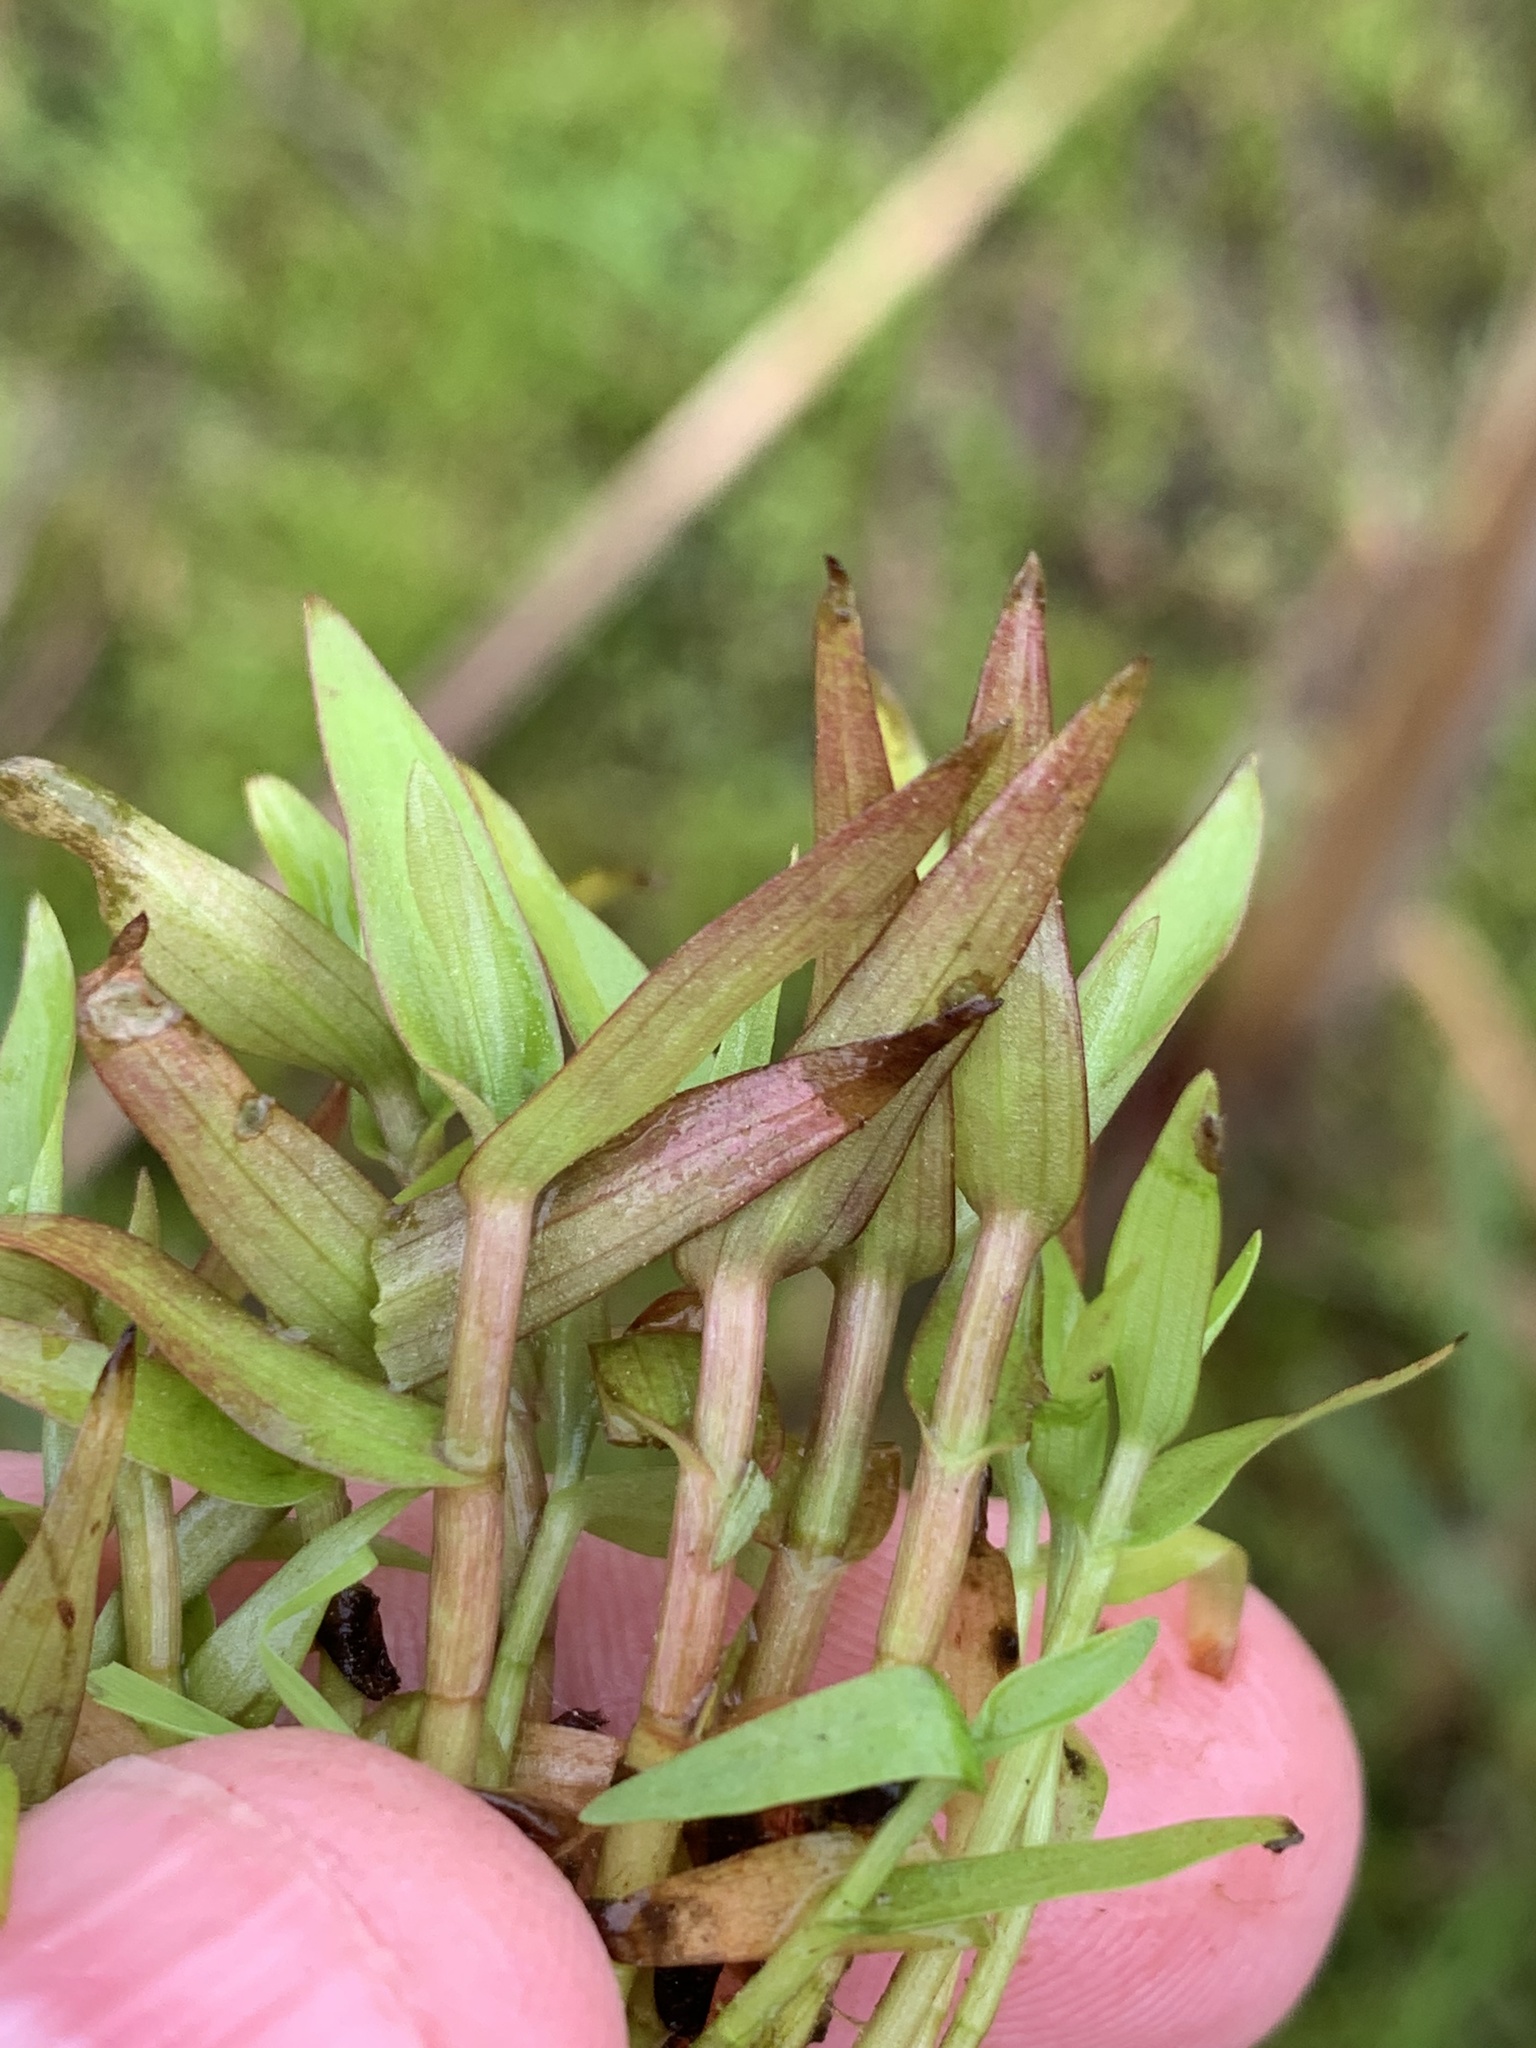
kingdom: Plantae
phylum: Tracheophyta
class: Liliopsida
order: Commelinales
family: Commelinaceae
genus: Murdannia
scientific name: Murdannia keisak
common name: Wartremoving herb
